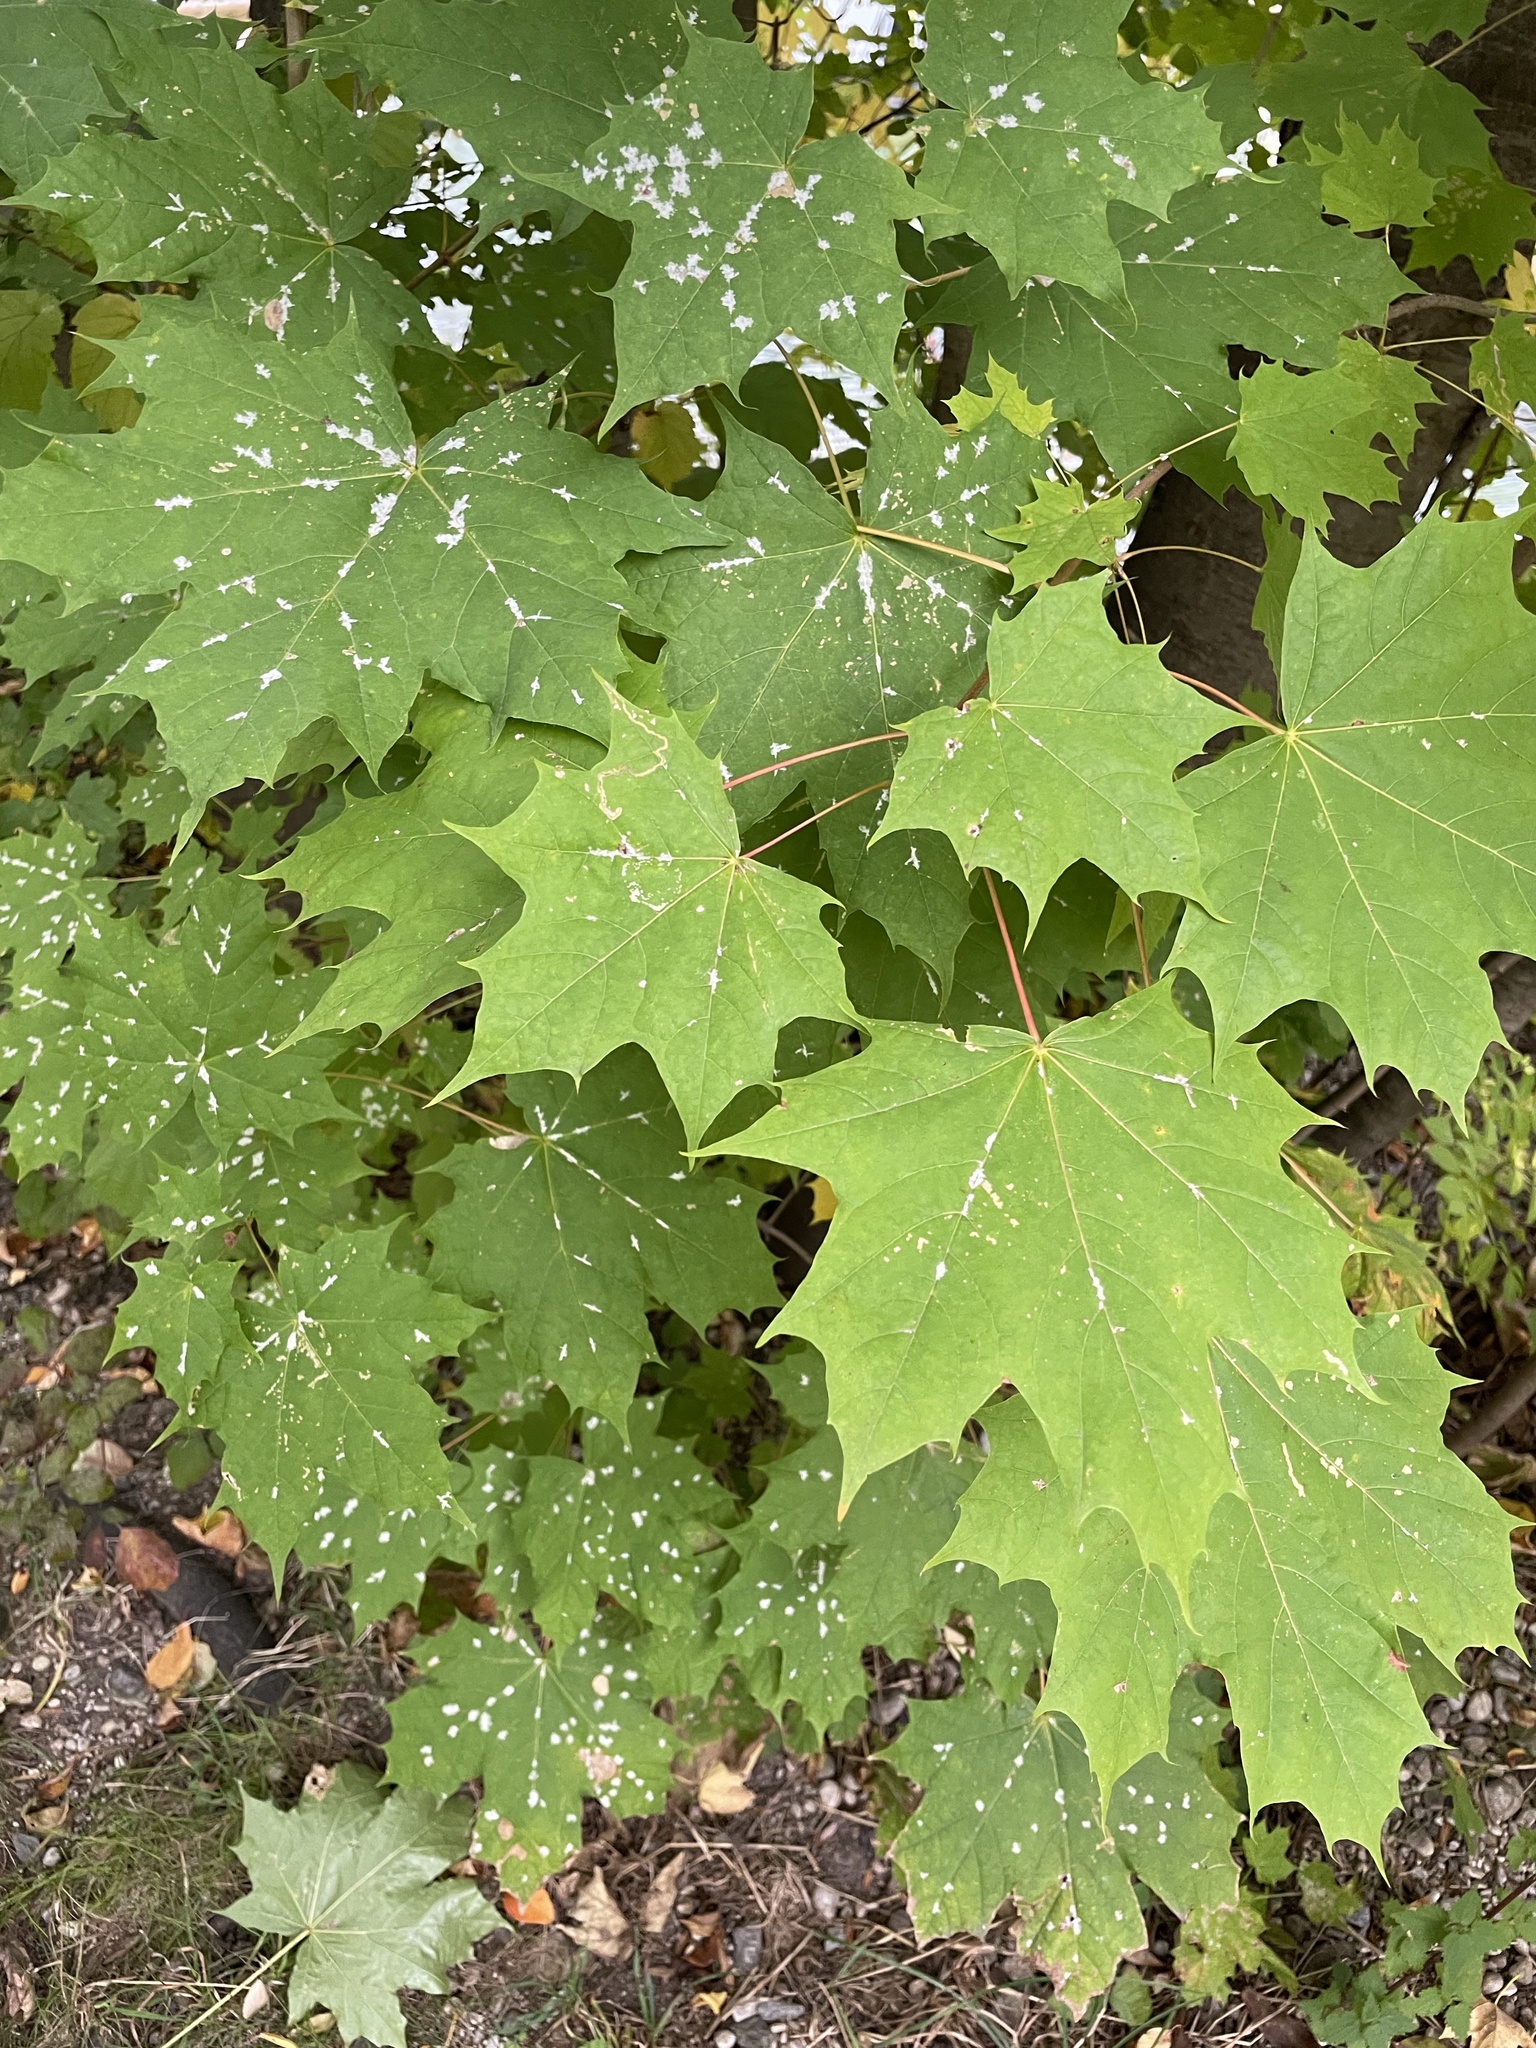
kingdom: Plantae
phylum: Tracheophyta
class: Magnoliopsida
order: Sapindales
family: Sapindaceae
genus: Acer
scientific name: Acer platanoides
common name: Norway maple
